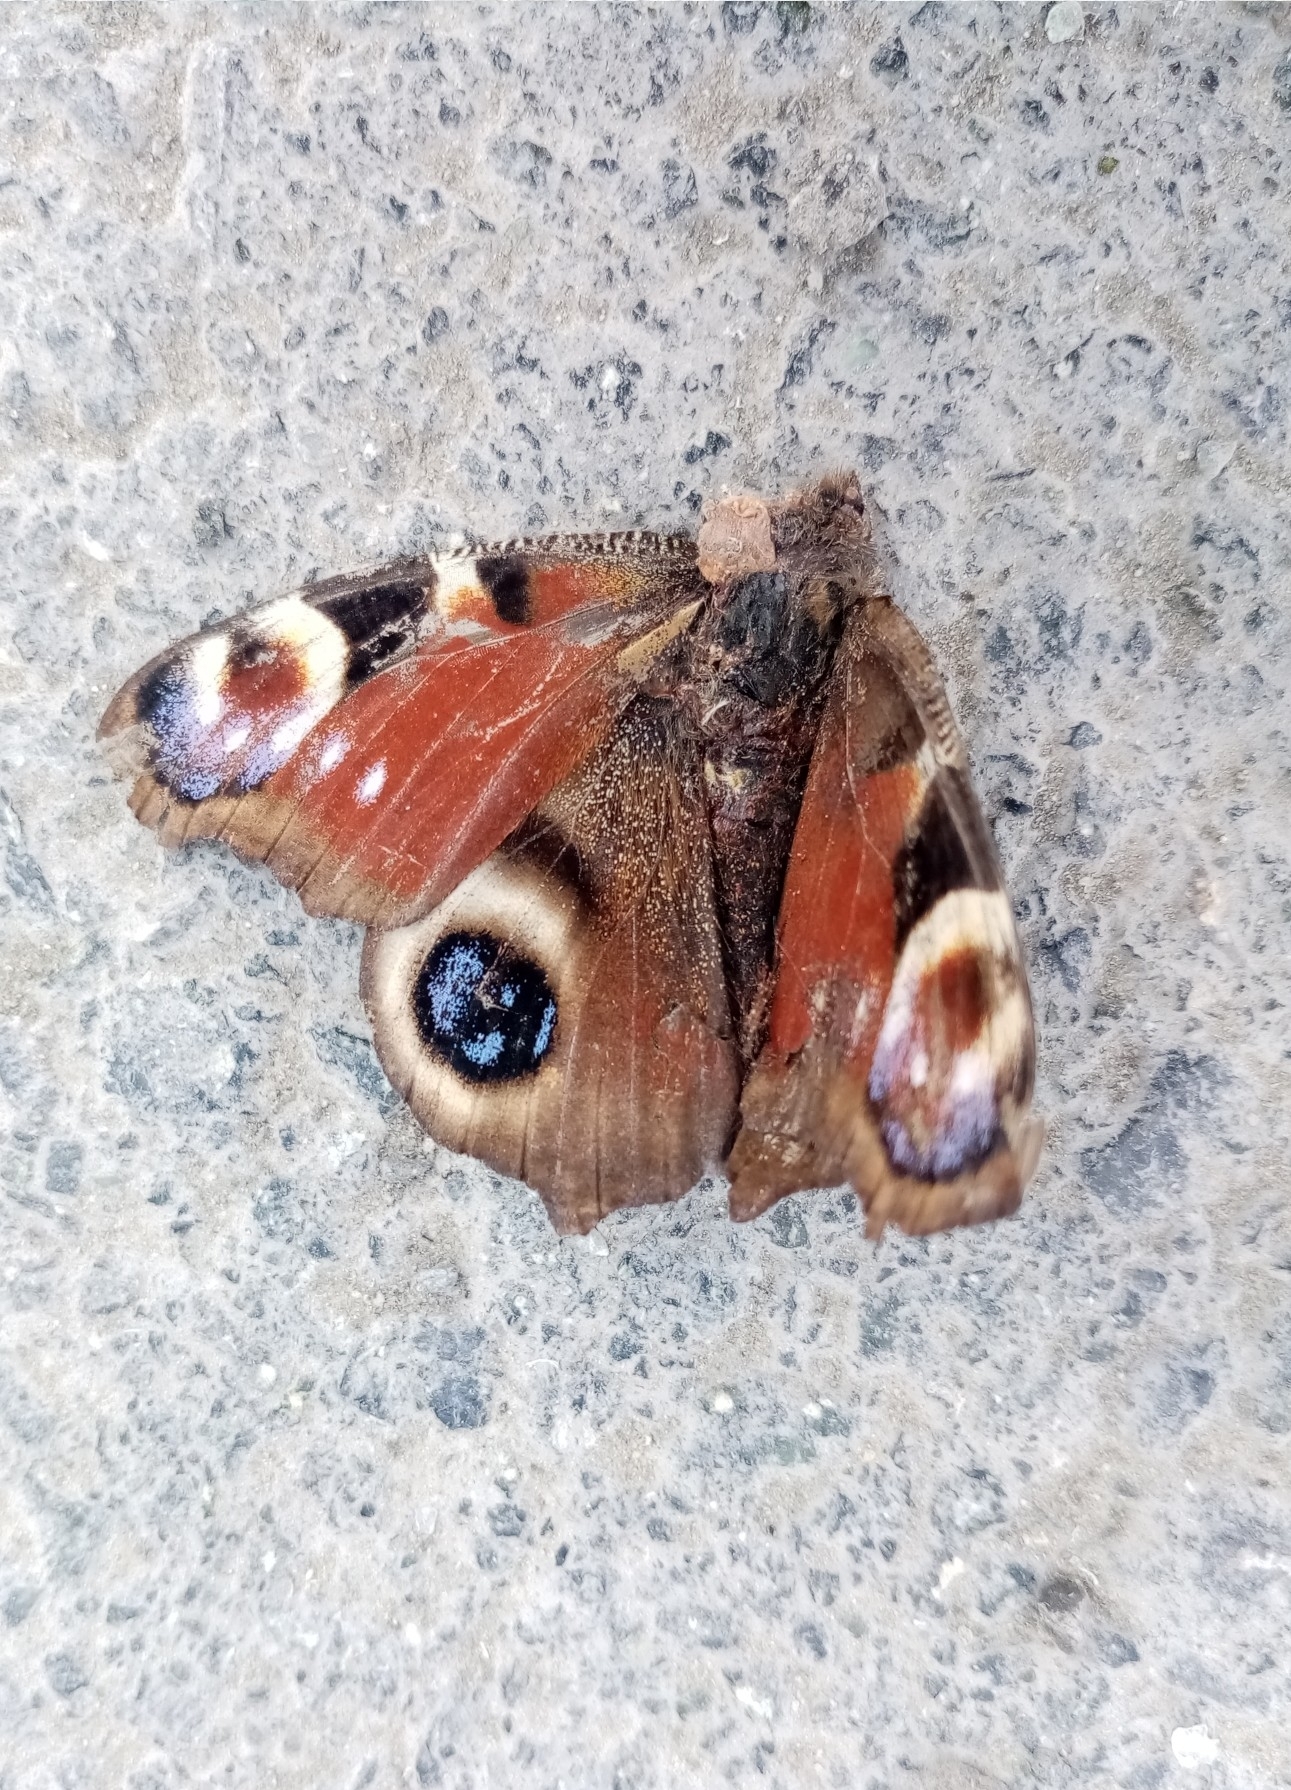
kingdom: Animalia
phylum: Arthropoda
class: Insecta
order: Lepidoptera
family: Nymphalidae
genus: Aglais
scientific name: Aglais io
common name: Peacock
